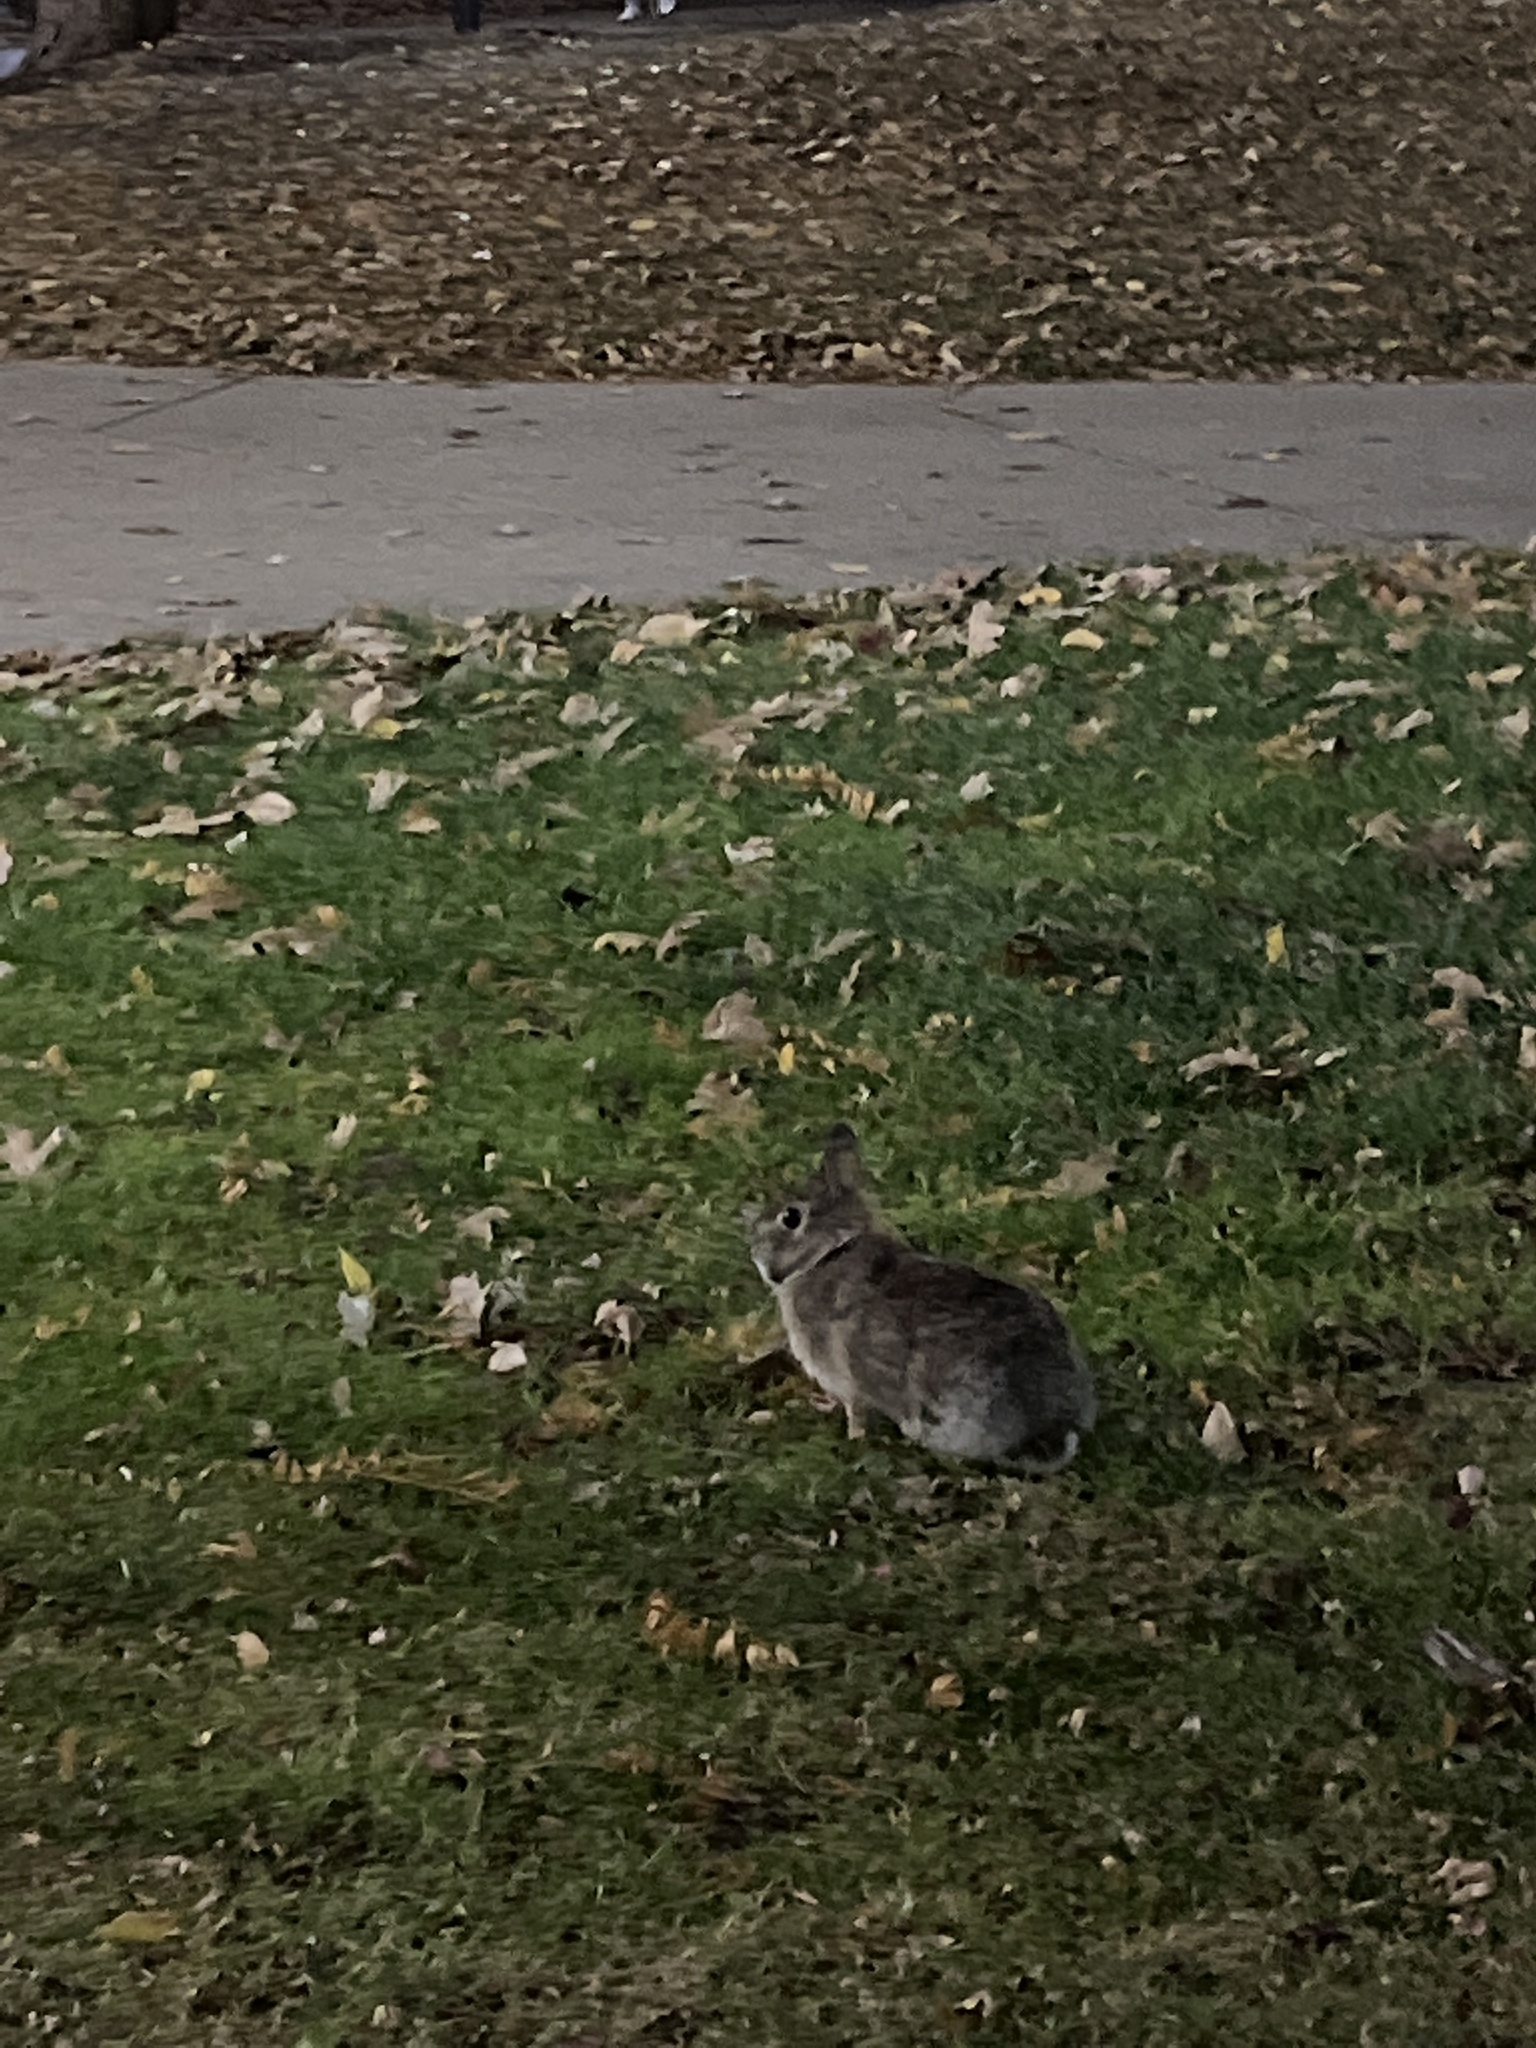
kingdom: Animalia
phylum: Chordata
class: Mammalia
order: Lagomorpha
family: Leporidae
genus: Sylvilagus
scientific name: Sylvilagus floridanus
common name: Eastern cottontail
